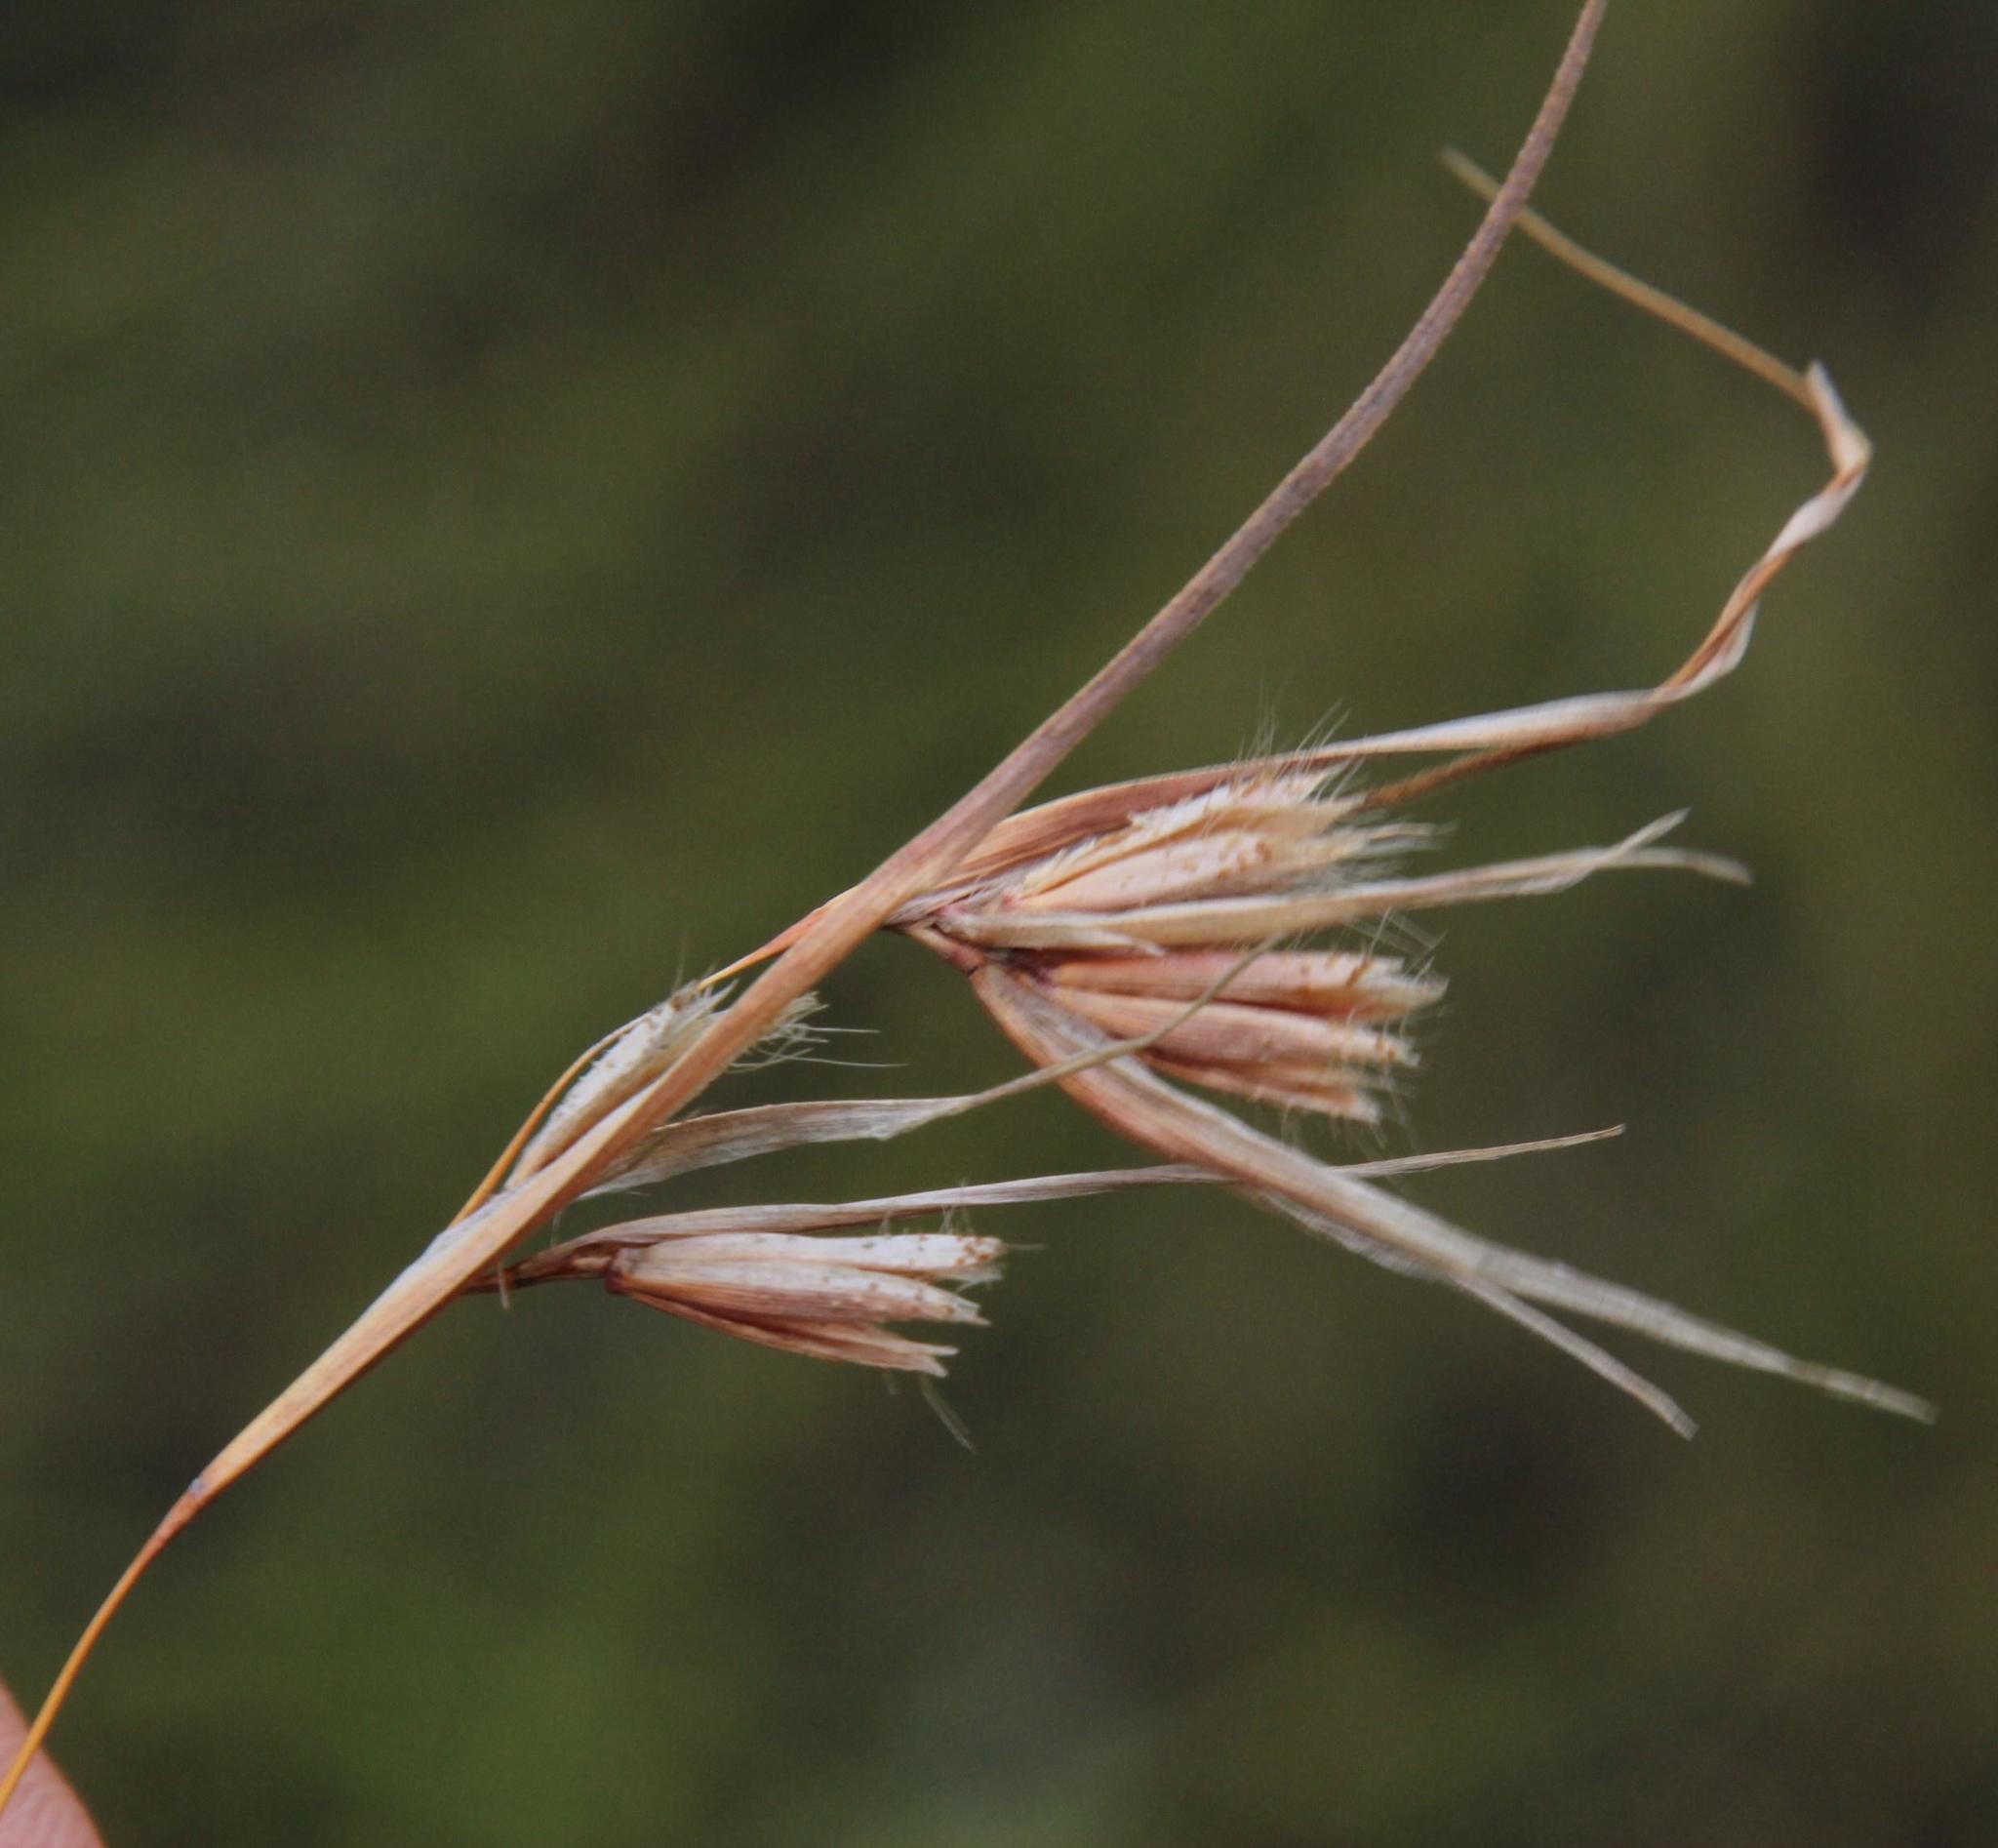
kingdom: Plantae
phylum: Tracheophyta
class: Liliopsida
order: Poales
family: Poaceae
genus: Themeda
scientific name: Themeda triandra
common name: Kangaroo grass
